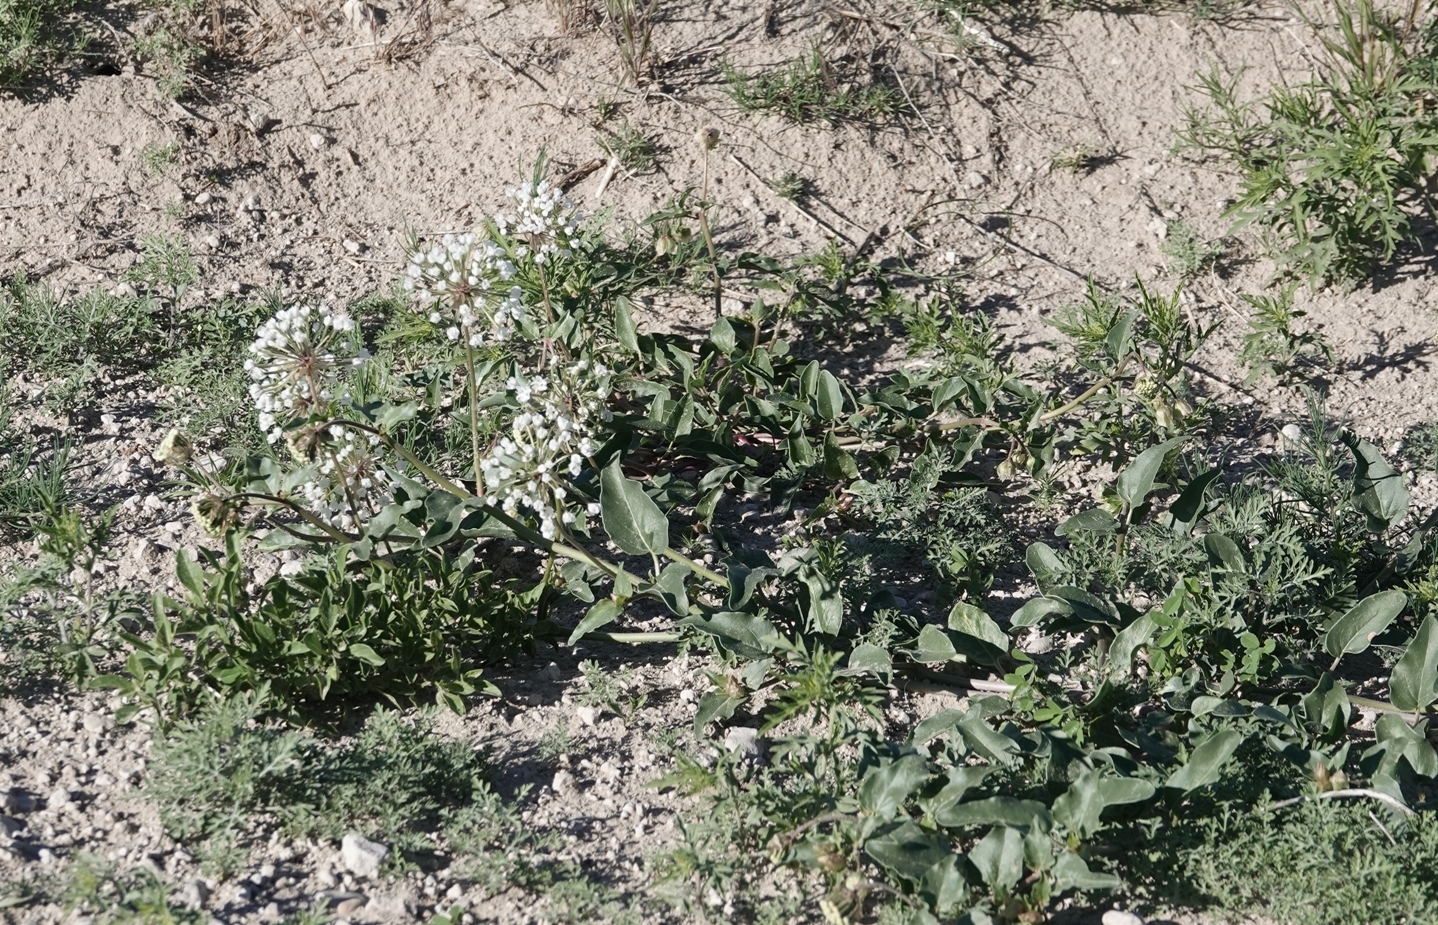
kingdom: Plantae
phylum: Tracheophyta
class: Magnoliopsida
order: Caryophyllales
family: Nyctaginaceae
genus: Abronia
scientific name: Abronia fragrans
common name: Fragrant sand-verbena
